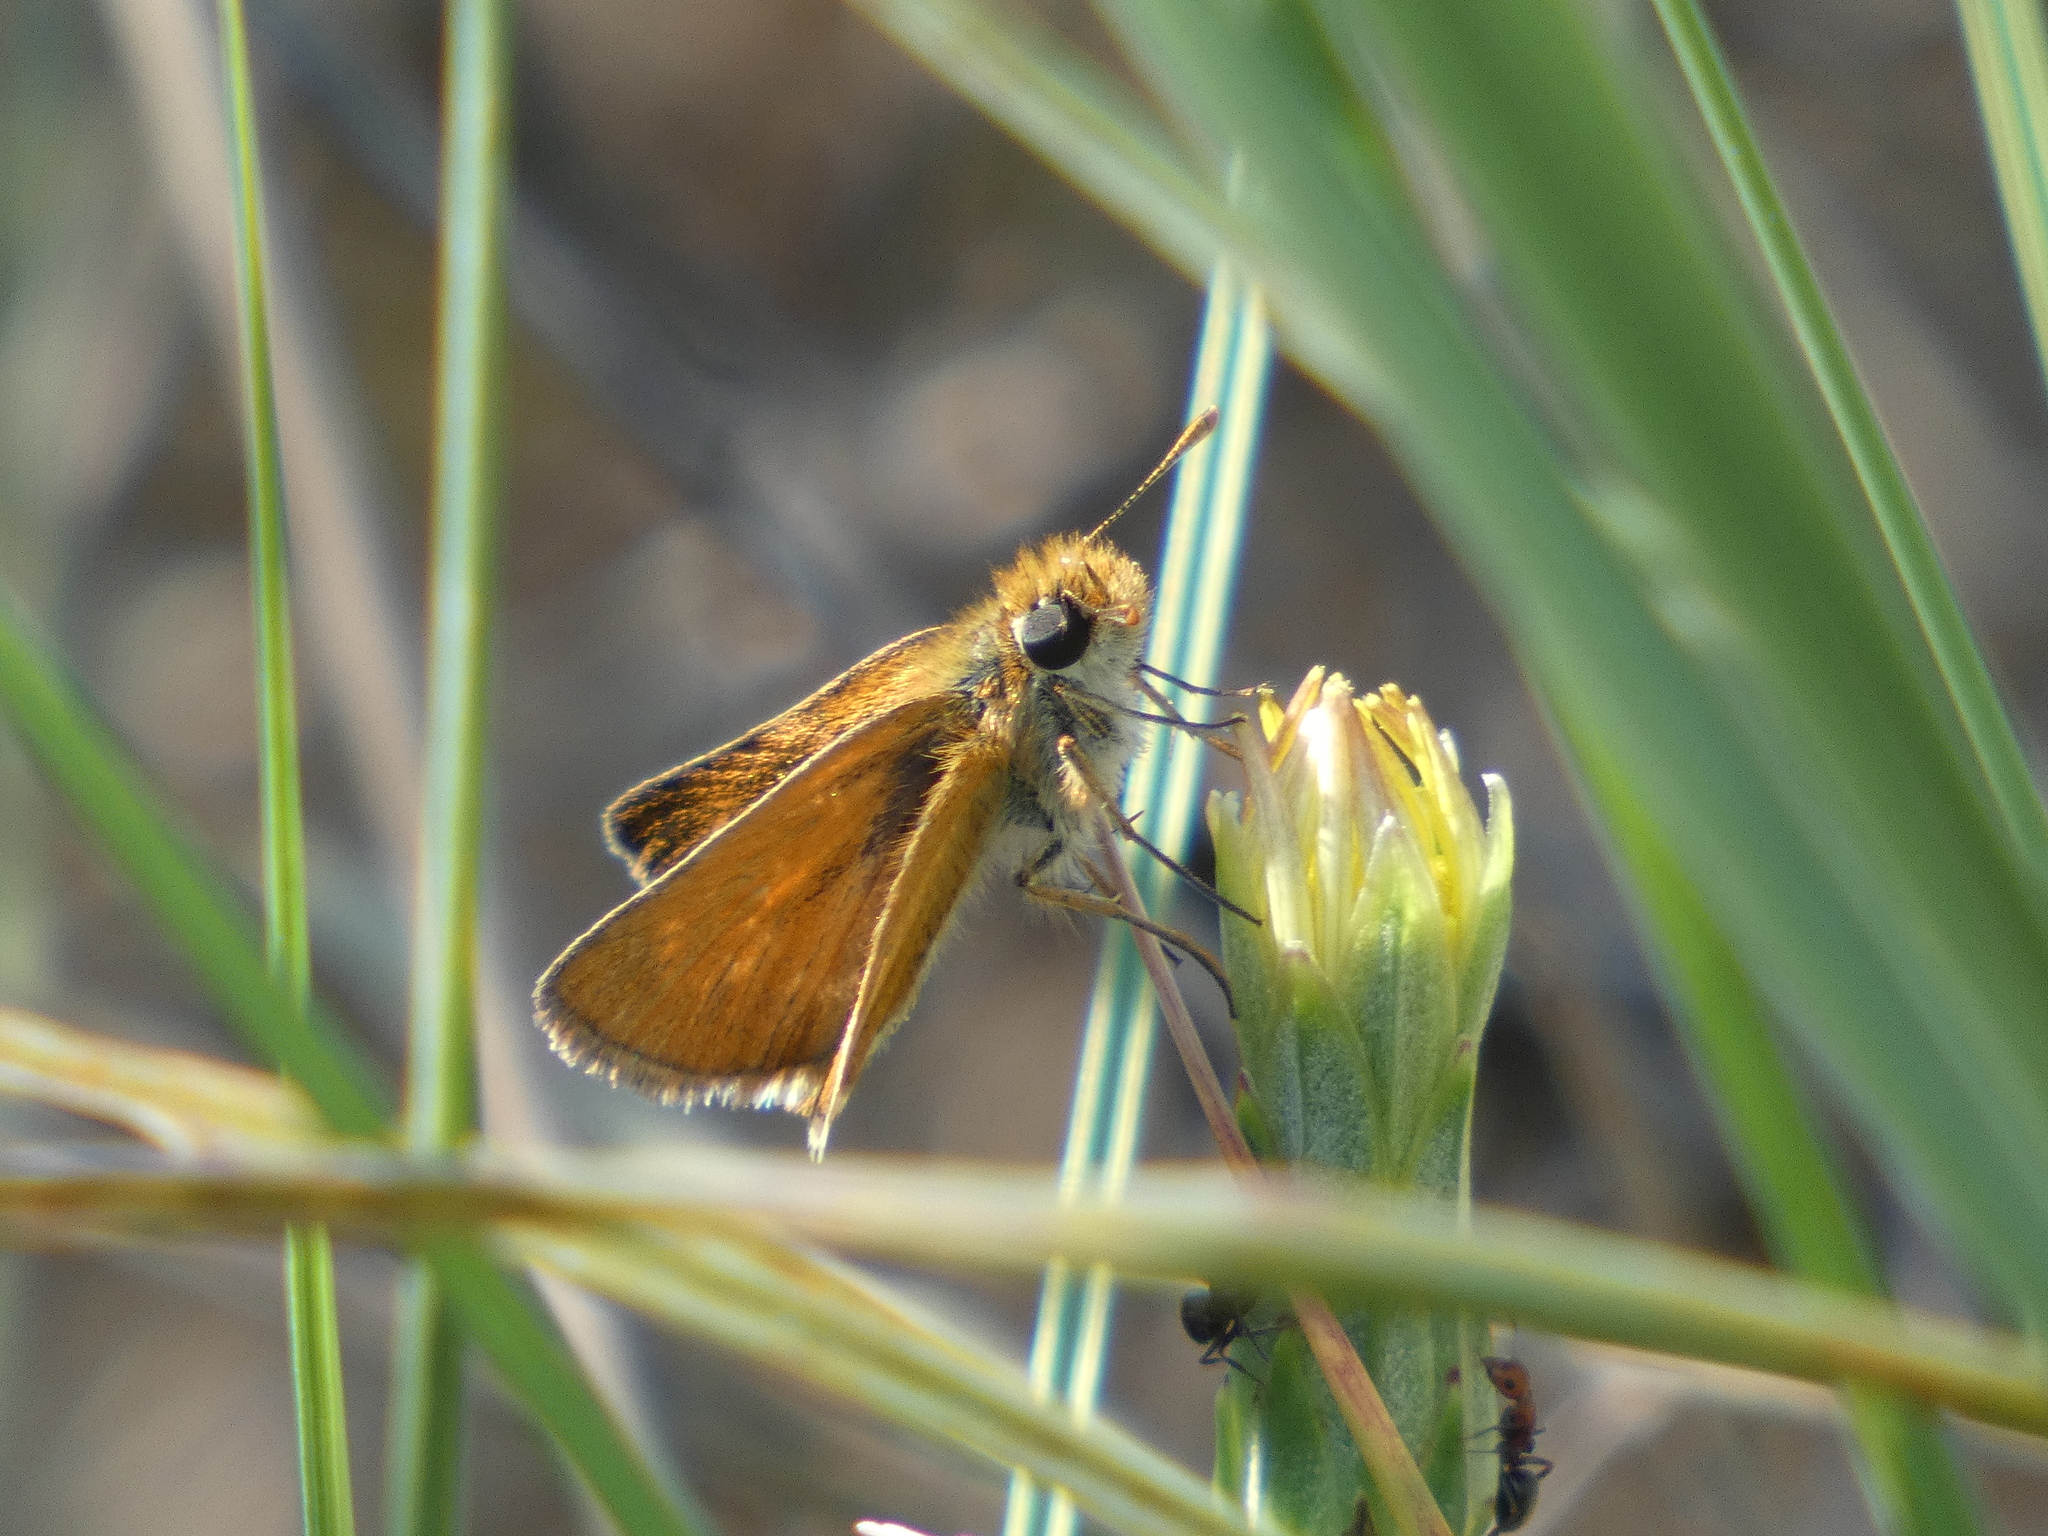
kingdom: Animalia
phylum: Arthropoda
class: Insecta
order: Lepidoptera
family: Hesperiidae
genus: Thymelicus
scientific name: Thymelicus acteon
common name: Lulworth skipper
